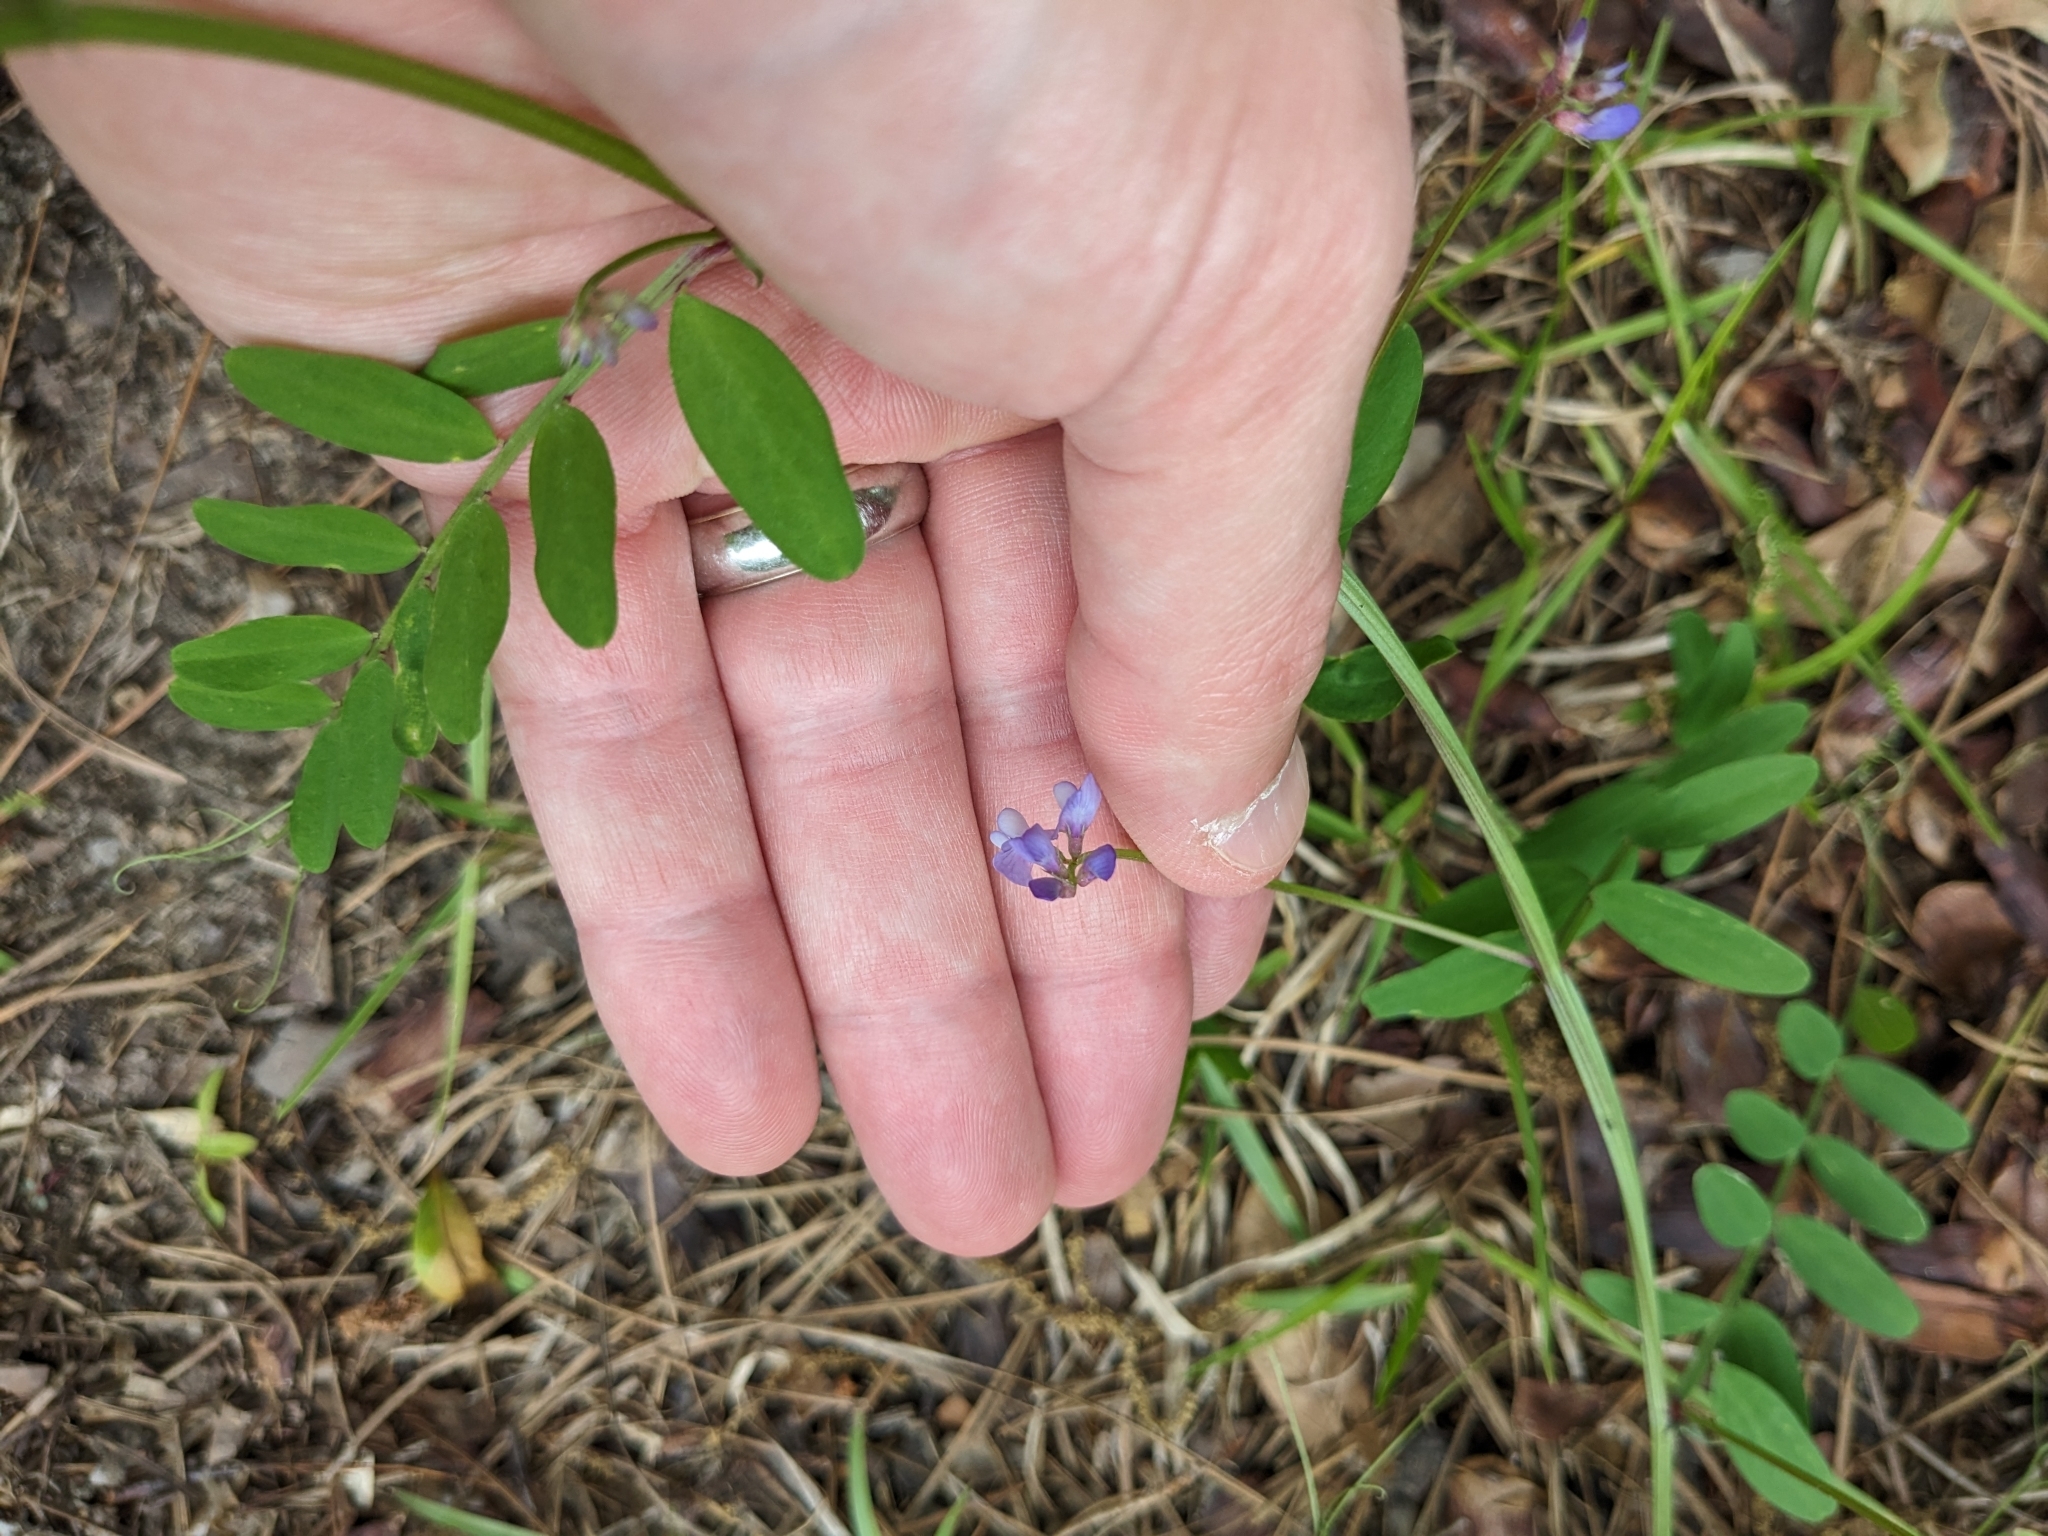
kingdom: Plantae
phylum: Tracheophyta
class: Magnoliopsida
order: Fabales
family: Fabaceae
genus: Vicia
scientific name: Vicia ludoviciana
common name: Louisiana vetch
